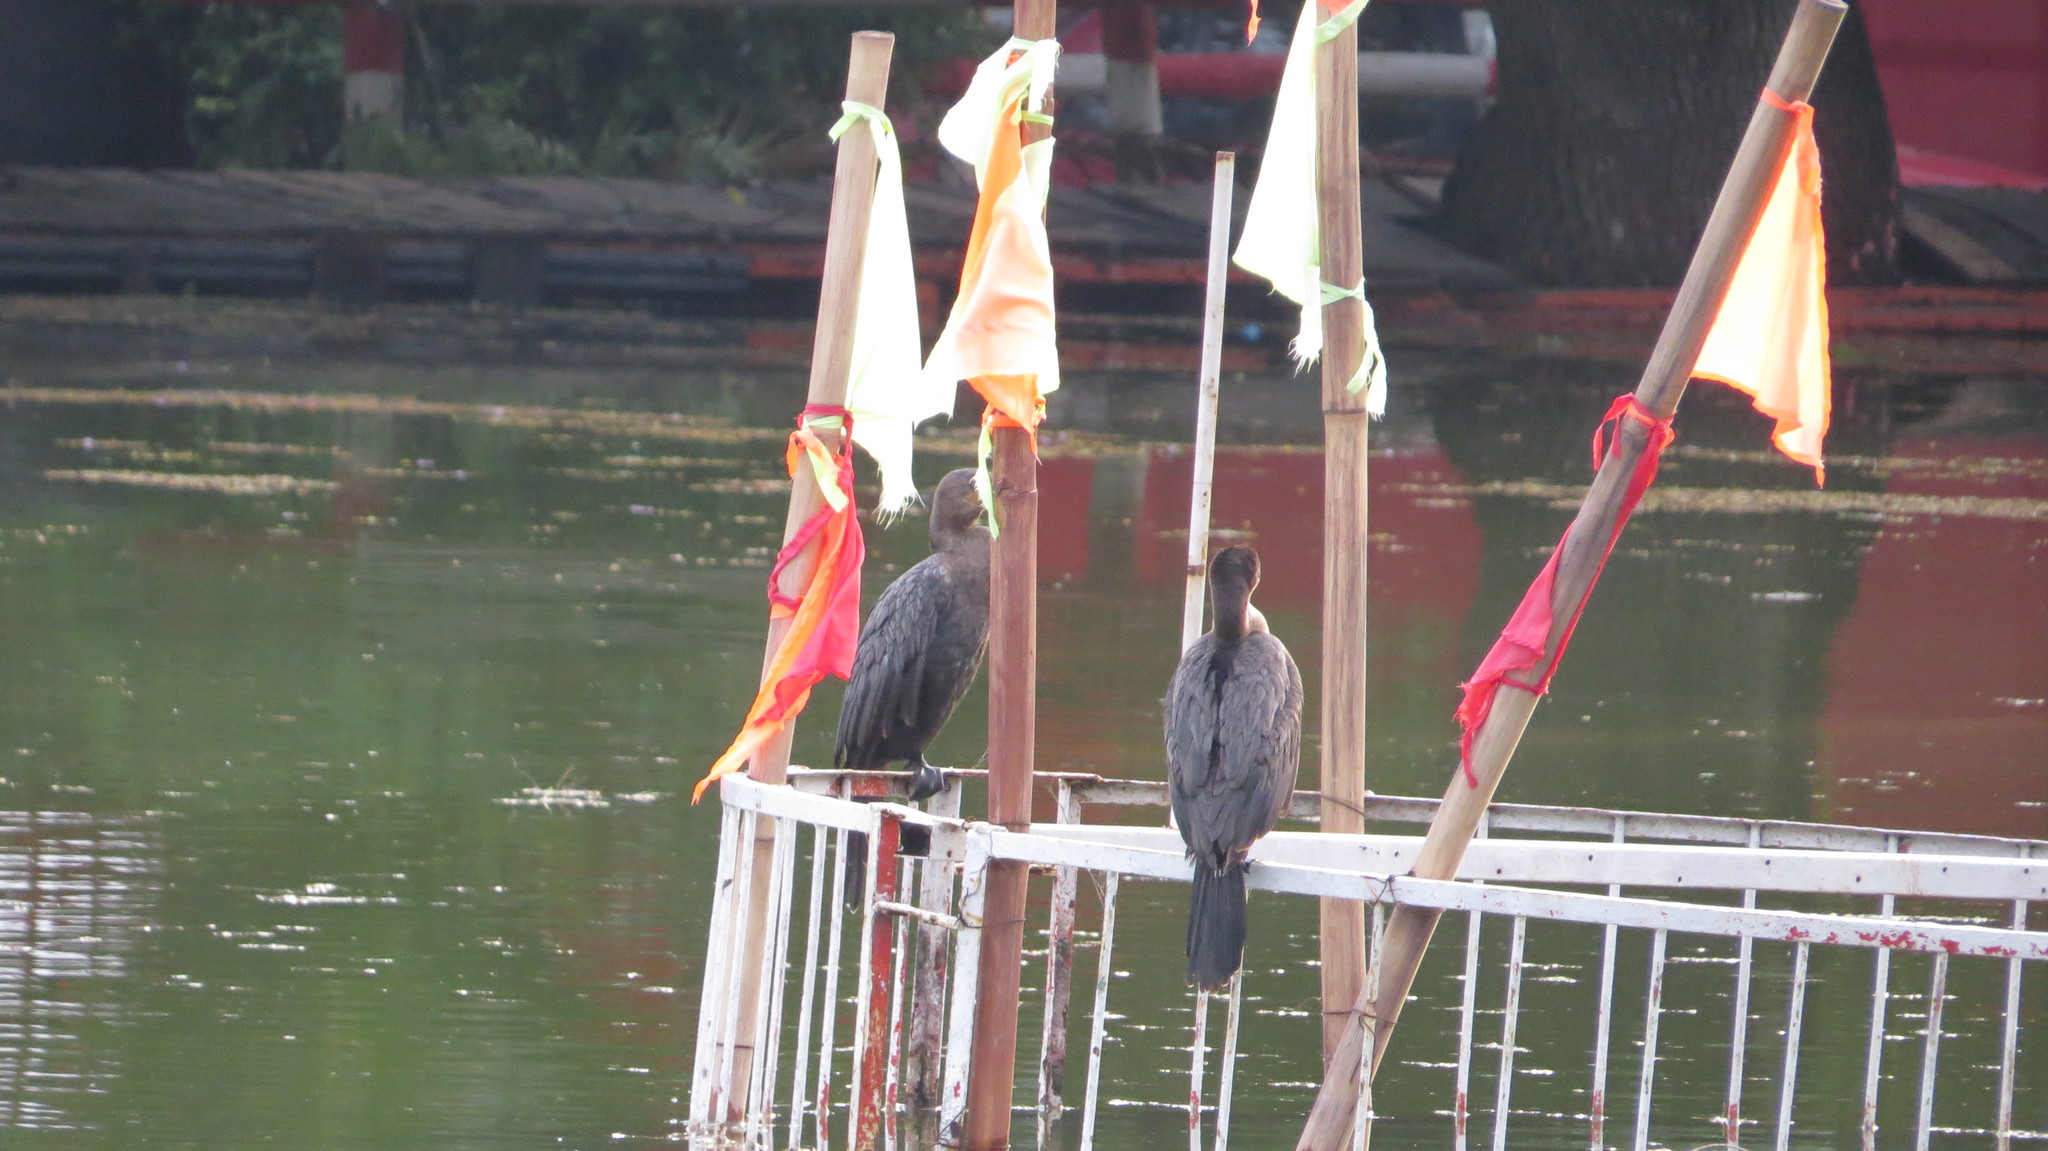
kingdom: Animalia
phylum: Chordata
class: Aves
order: Suliformes
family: Phalacrocoracidae
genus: Phalacrocorax
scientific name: Phalacrocorax brasilianus
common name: Neotropic cormorant
